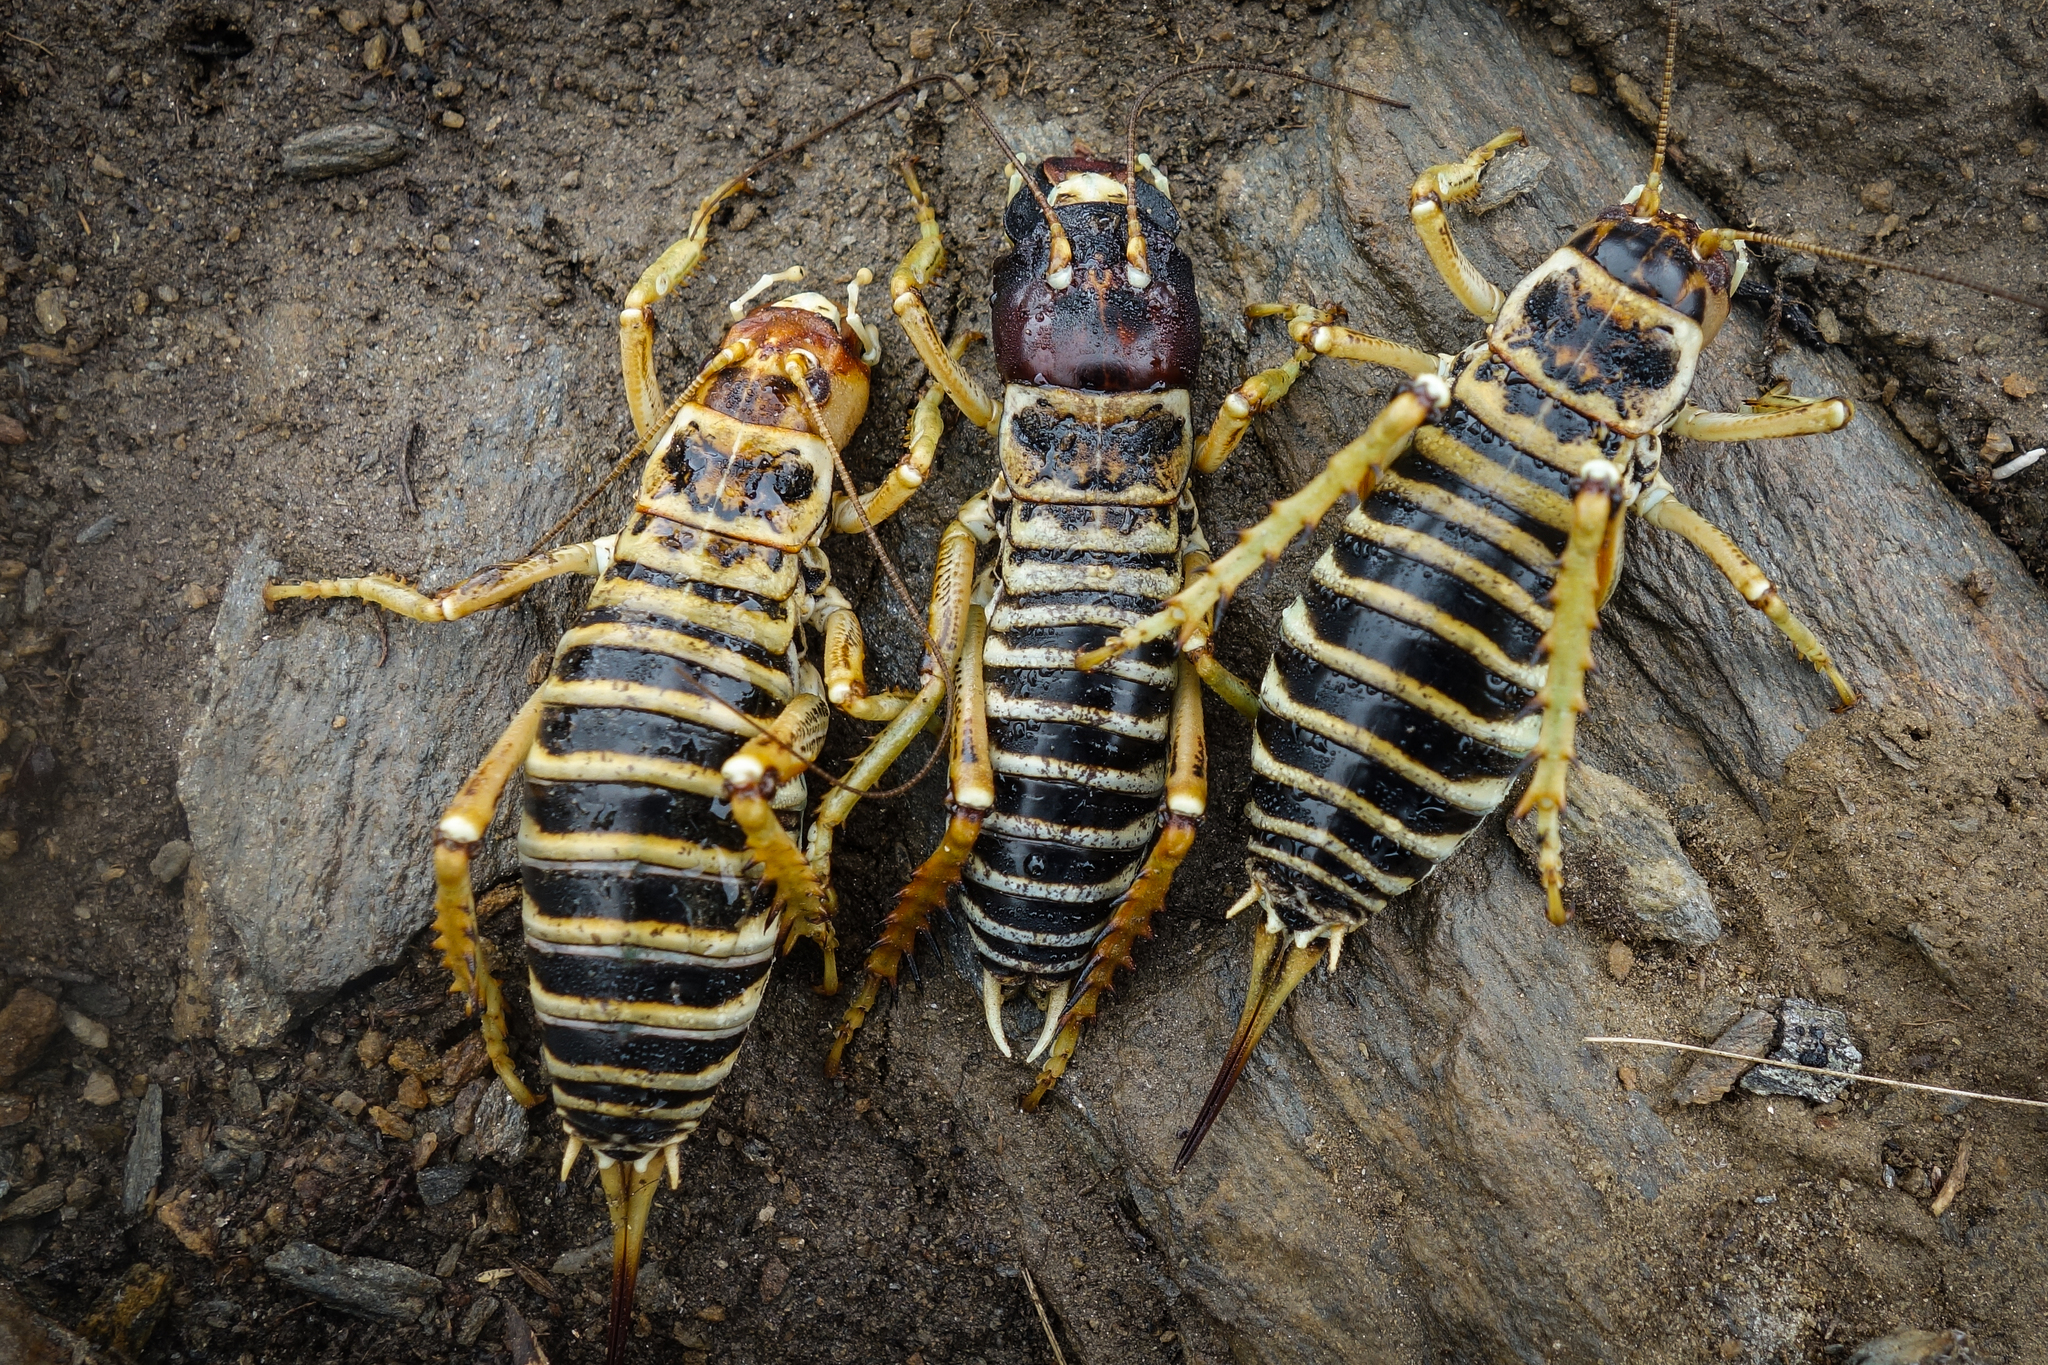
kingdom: Animalia
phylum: Arthropoda
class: Insecta
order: Orthoptera
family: Anostostomatidae
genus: Hemideina
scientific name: Hemideina maori
